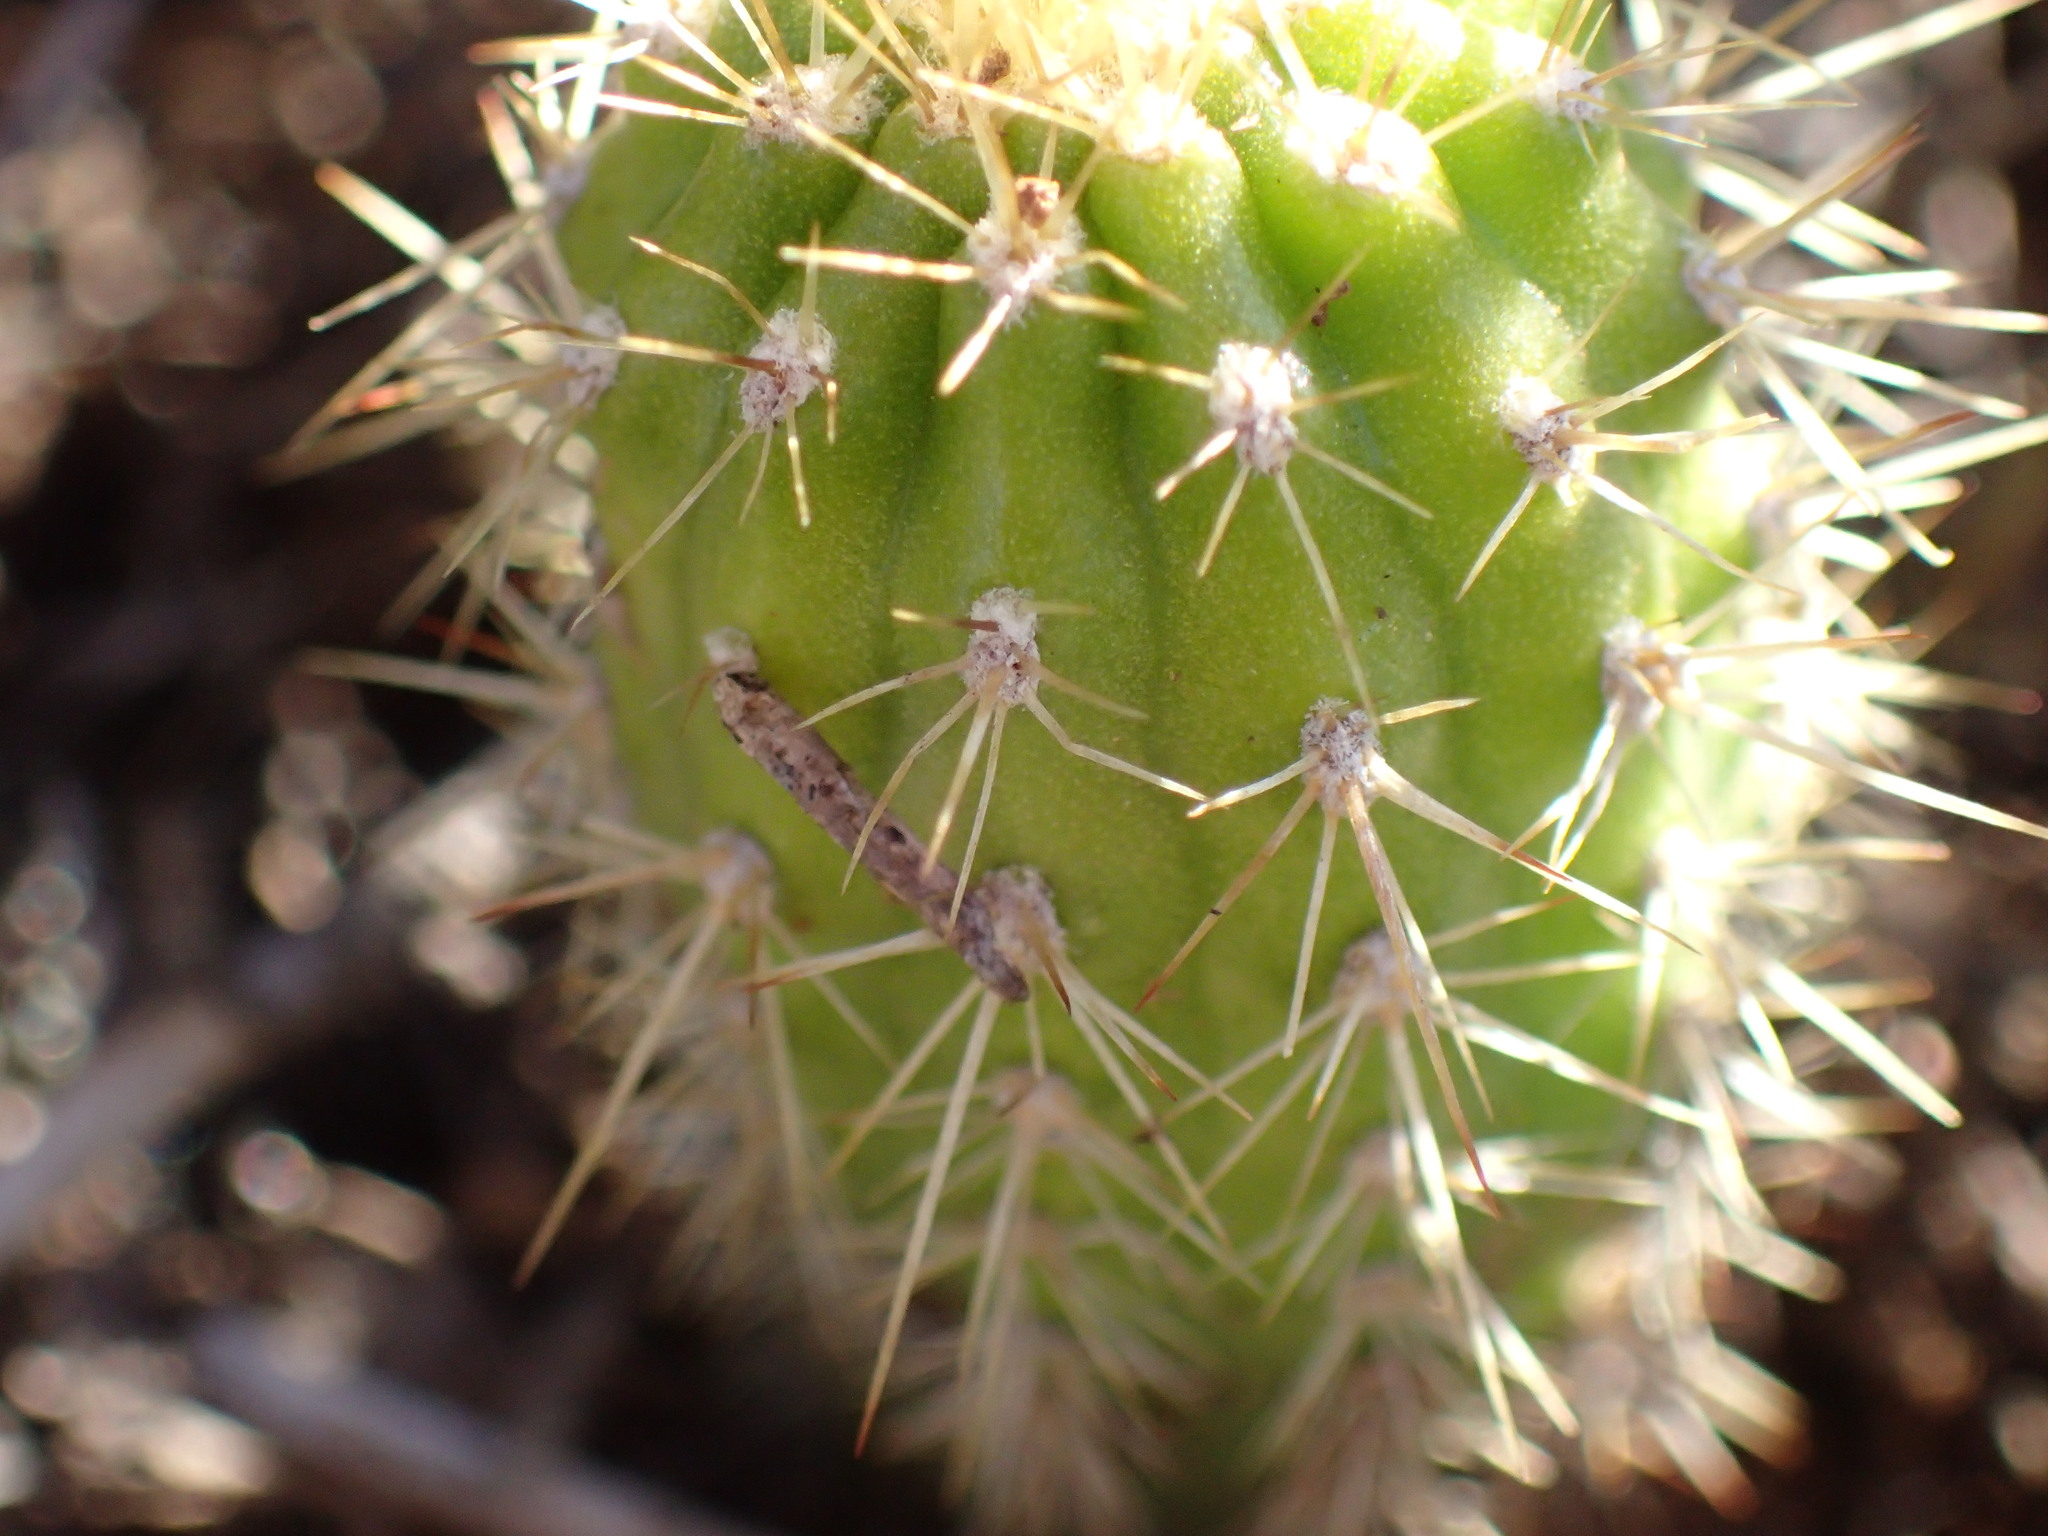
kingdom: Plantae
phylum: Tracheophyta
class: Magnoliopsida
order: Caryophyllales
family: Cactaceae
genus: Soehrensia
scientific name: Soehrensia spachiana
